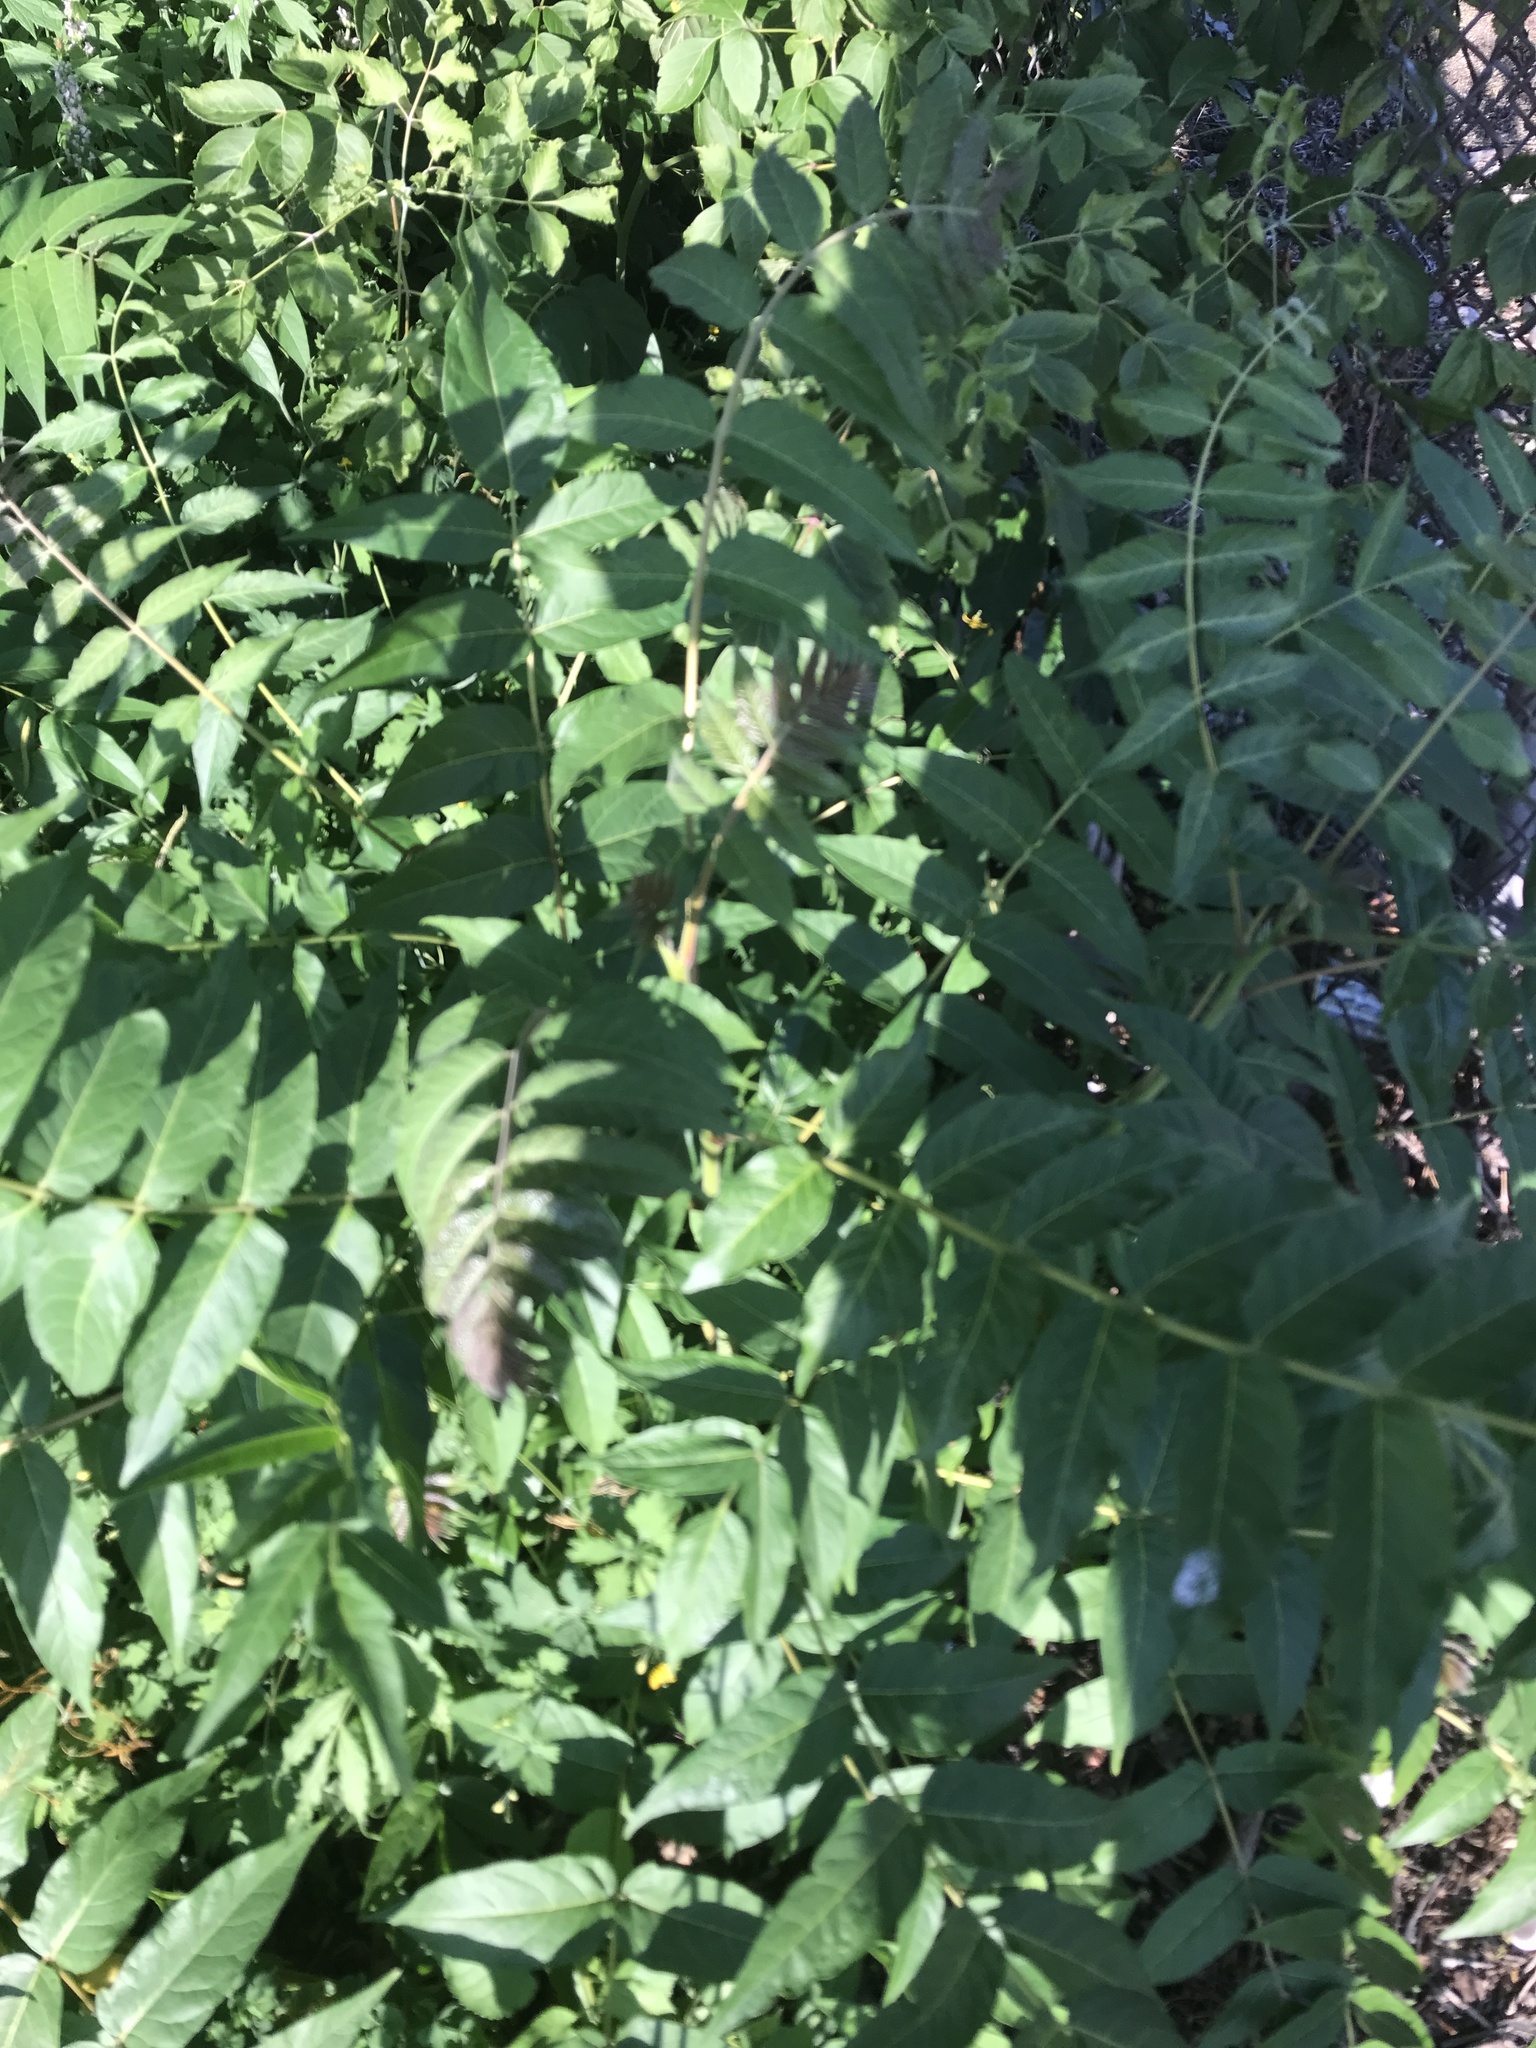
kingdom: Plantae
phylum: Tracheophyta
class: Magnoliopsida
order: Sapindales
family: Simaroubaceae
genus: Ailanthus
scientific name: Ailanthus altissima
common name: Tree-of-heaven
